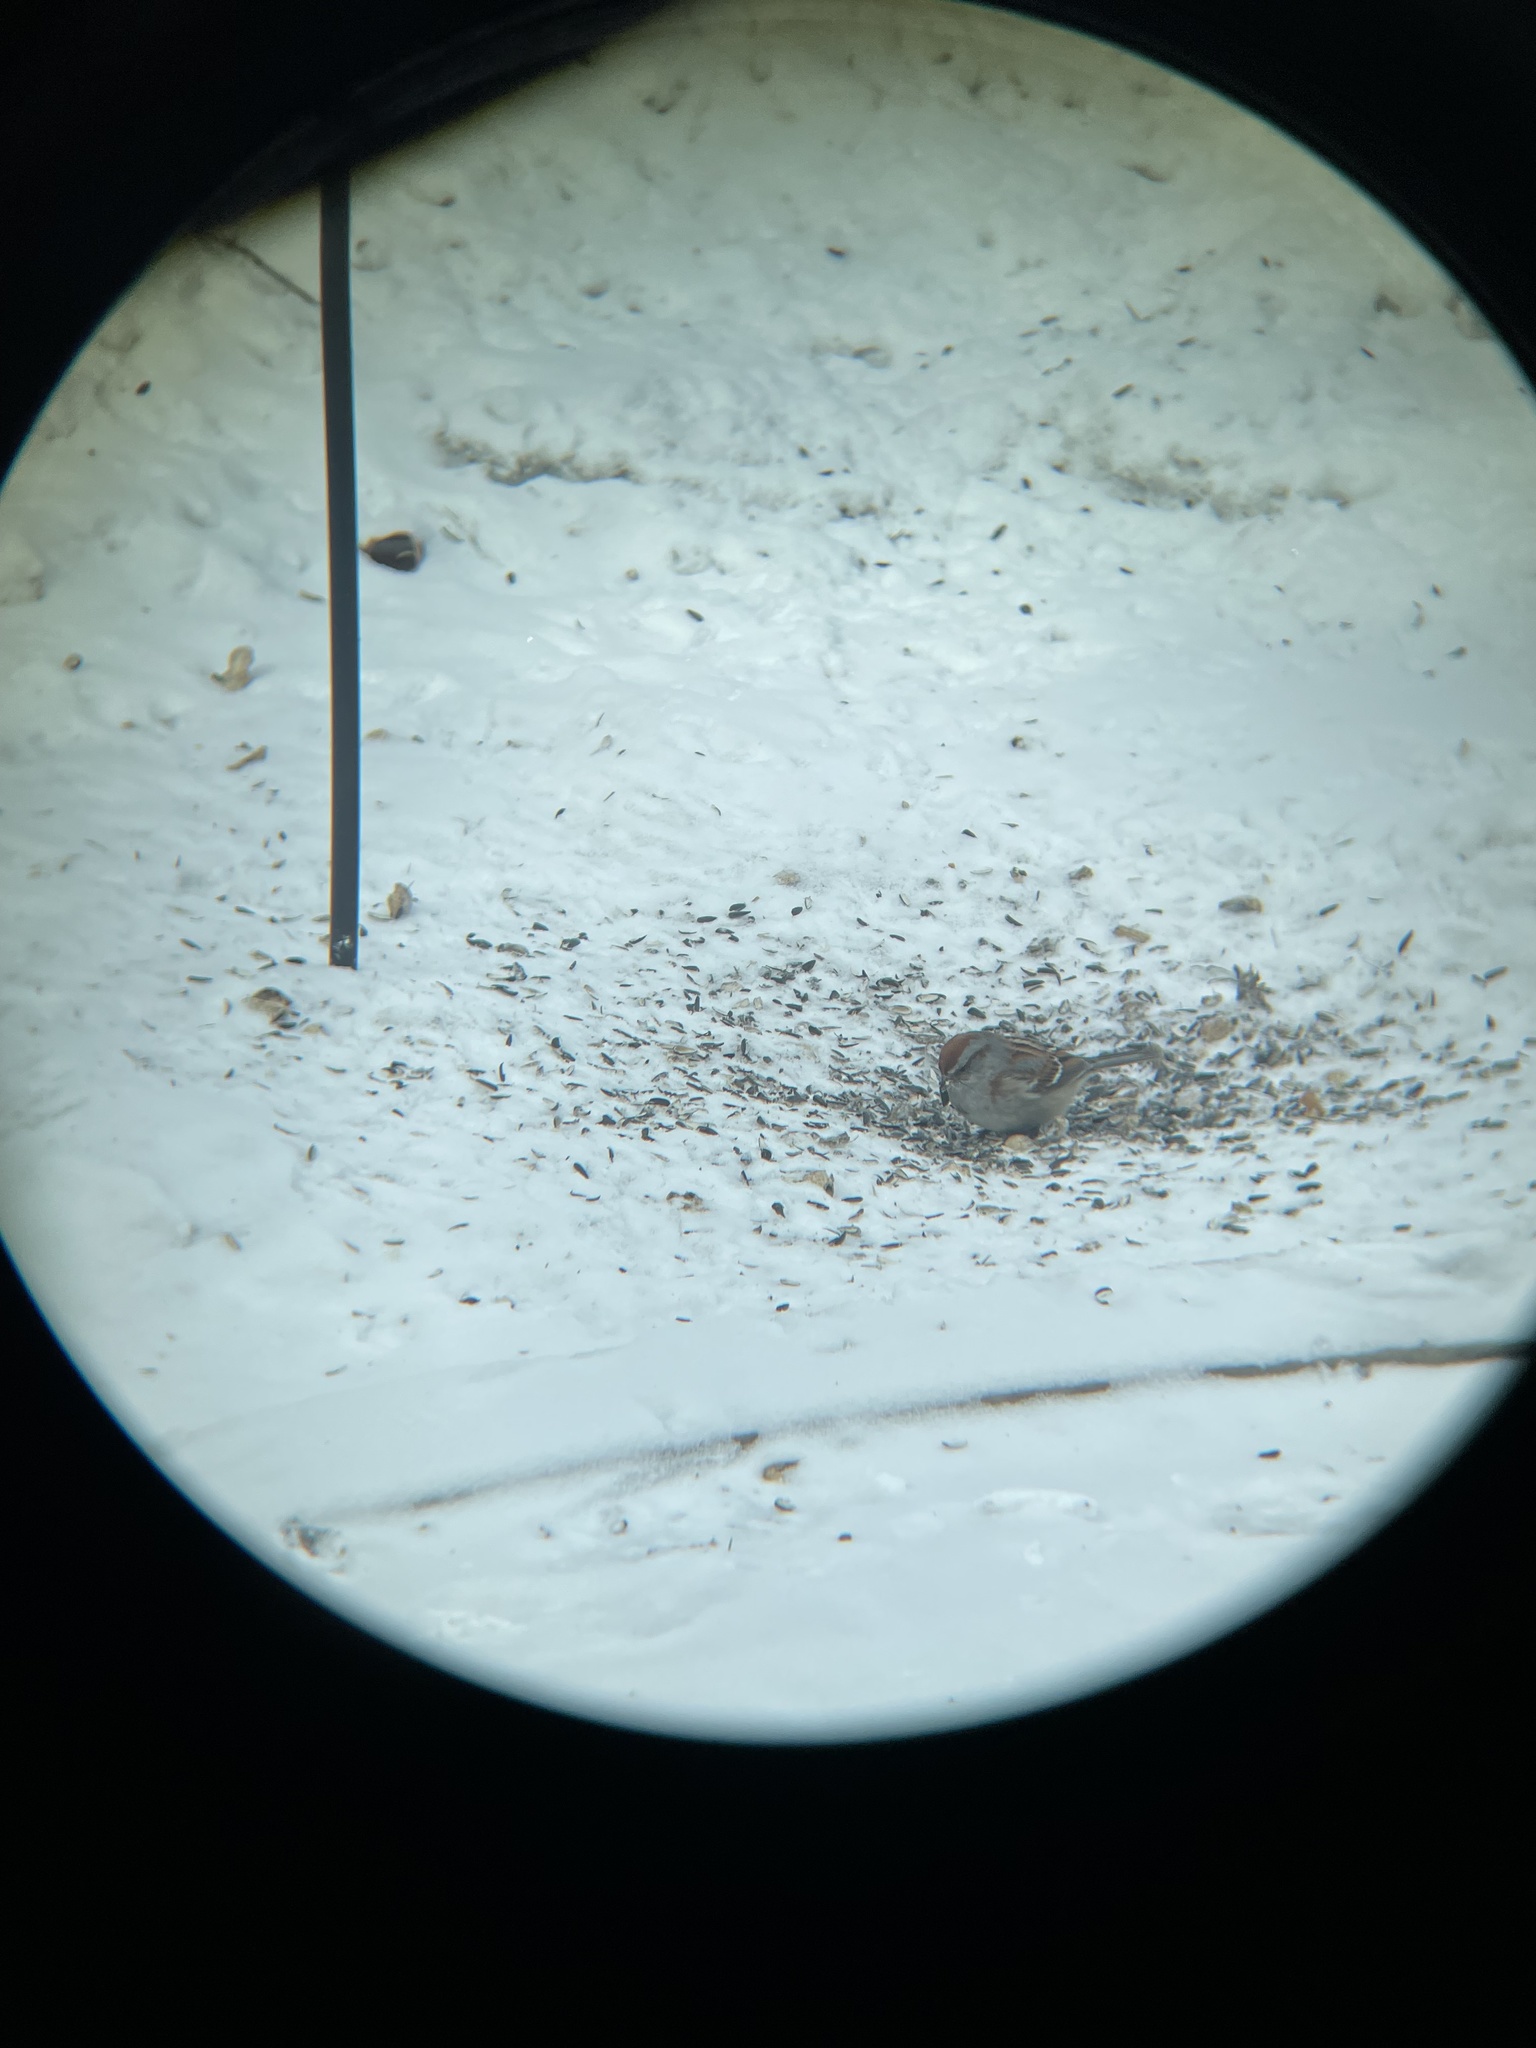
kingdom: Animalia
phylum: Chordata
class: Aves
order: Passeriformes
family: Passerellidae
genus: Spizelloides
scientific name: Spizelloides arborea
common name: American tree sparrow
